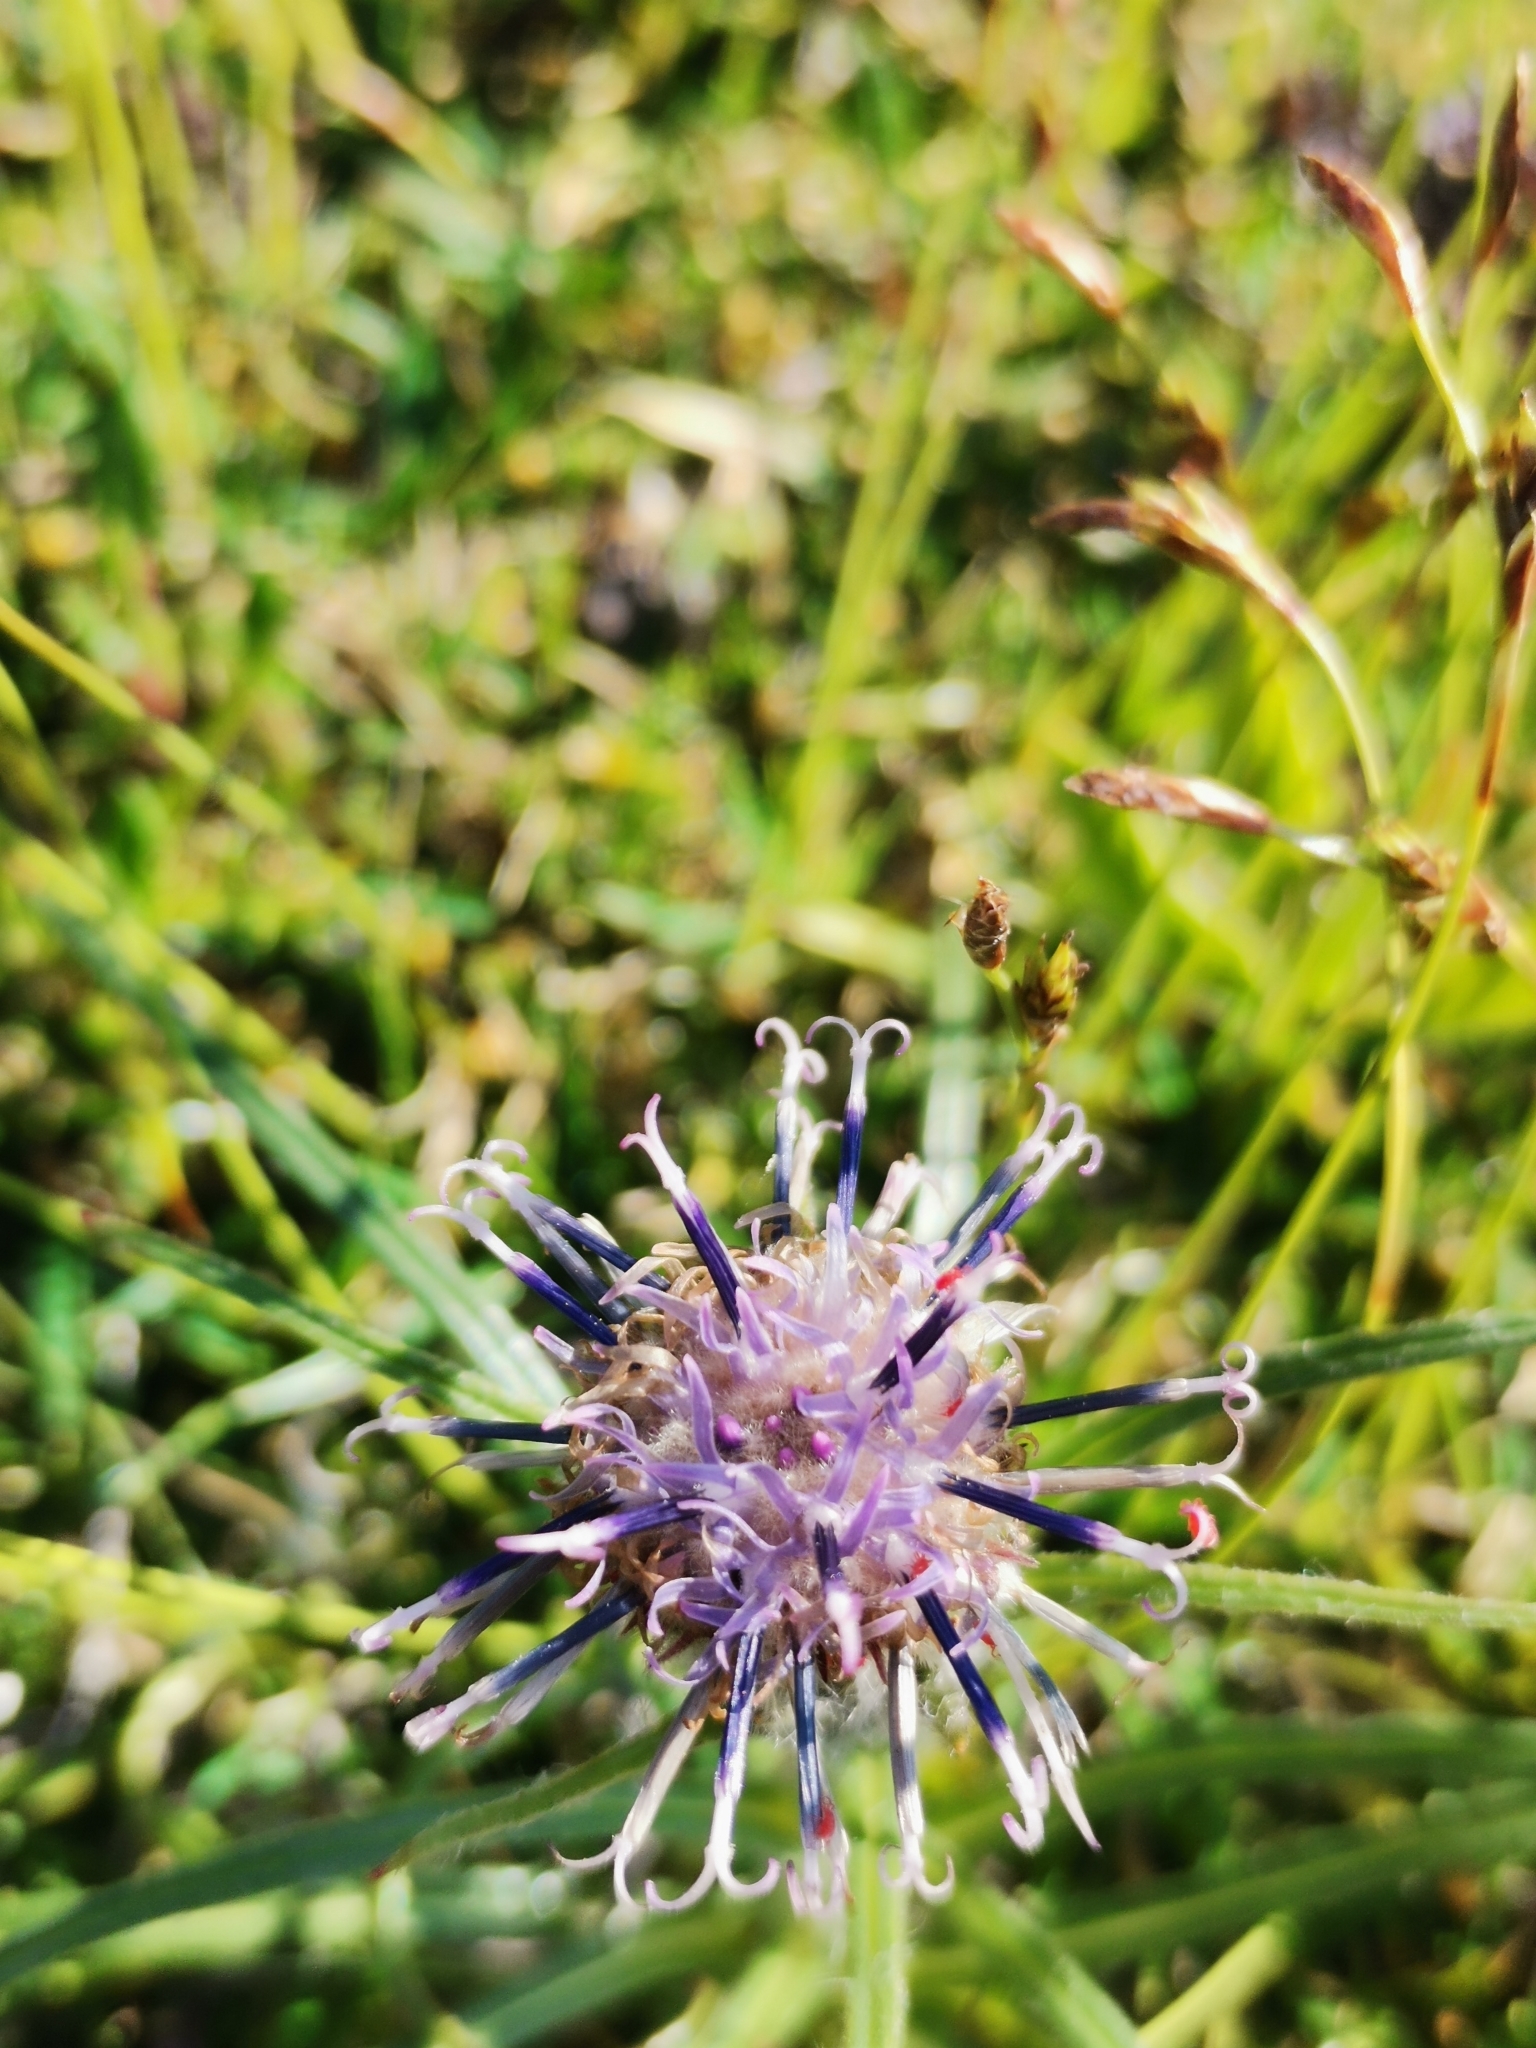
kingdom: Plantae
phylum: Tracheophyta
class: Magnoliopsida
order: Asterales
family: Asteraceae
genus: Saussurea
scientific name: Saussurea pygmaea
